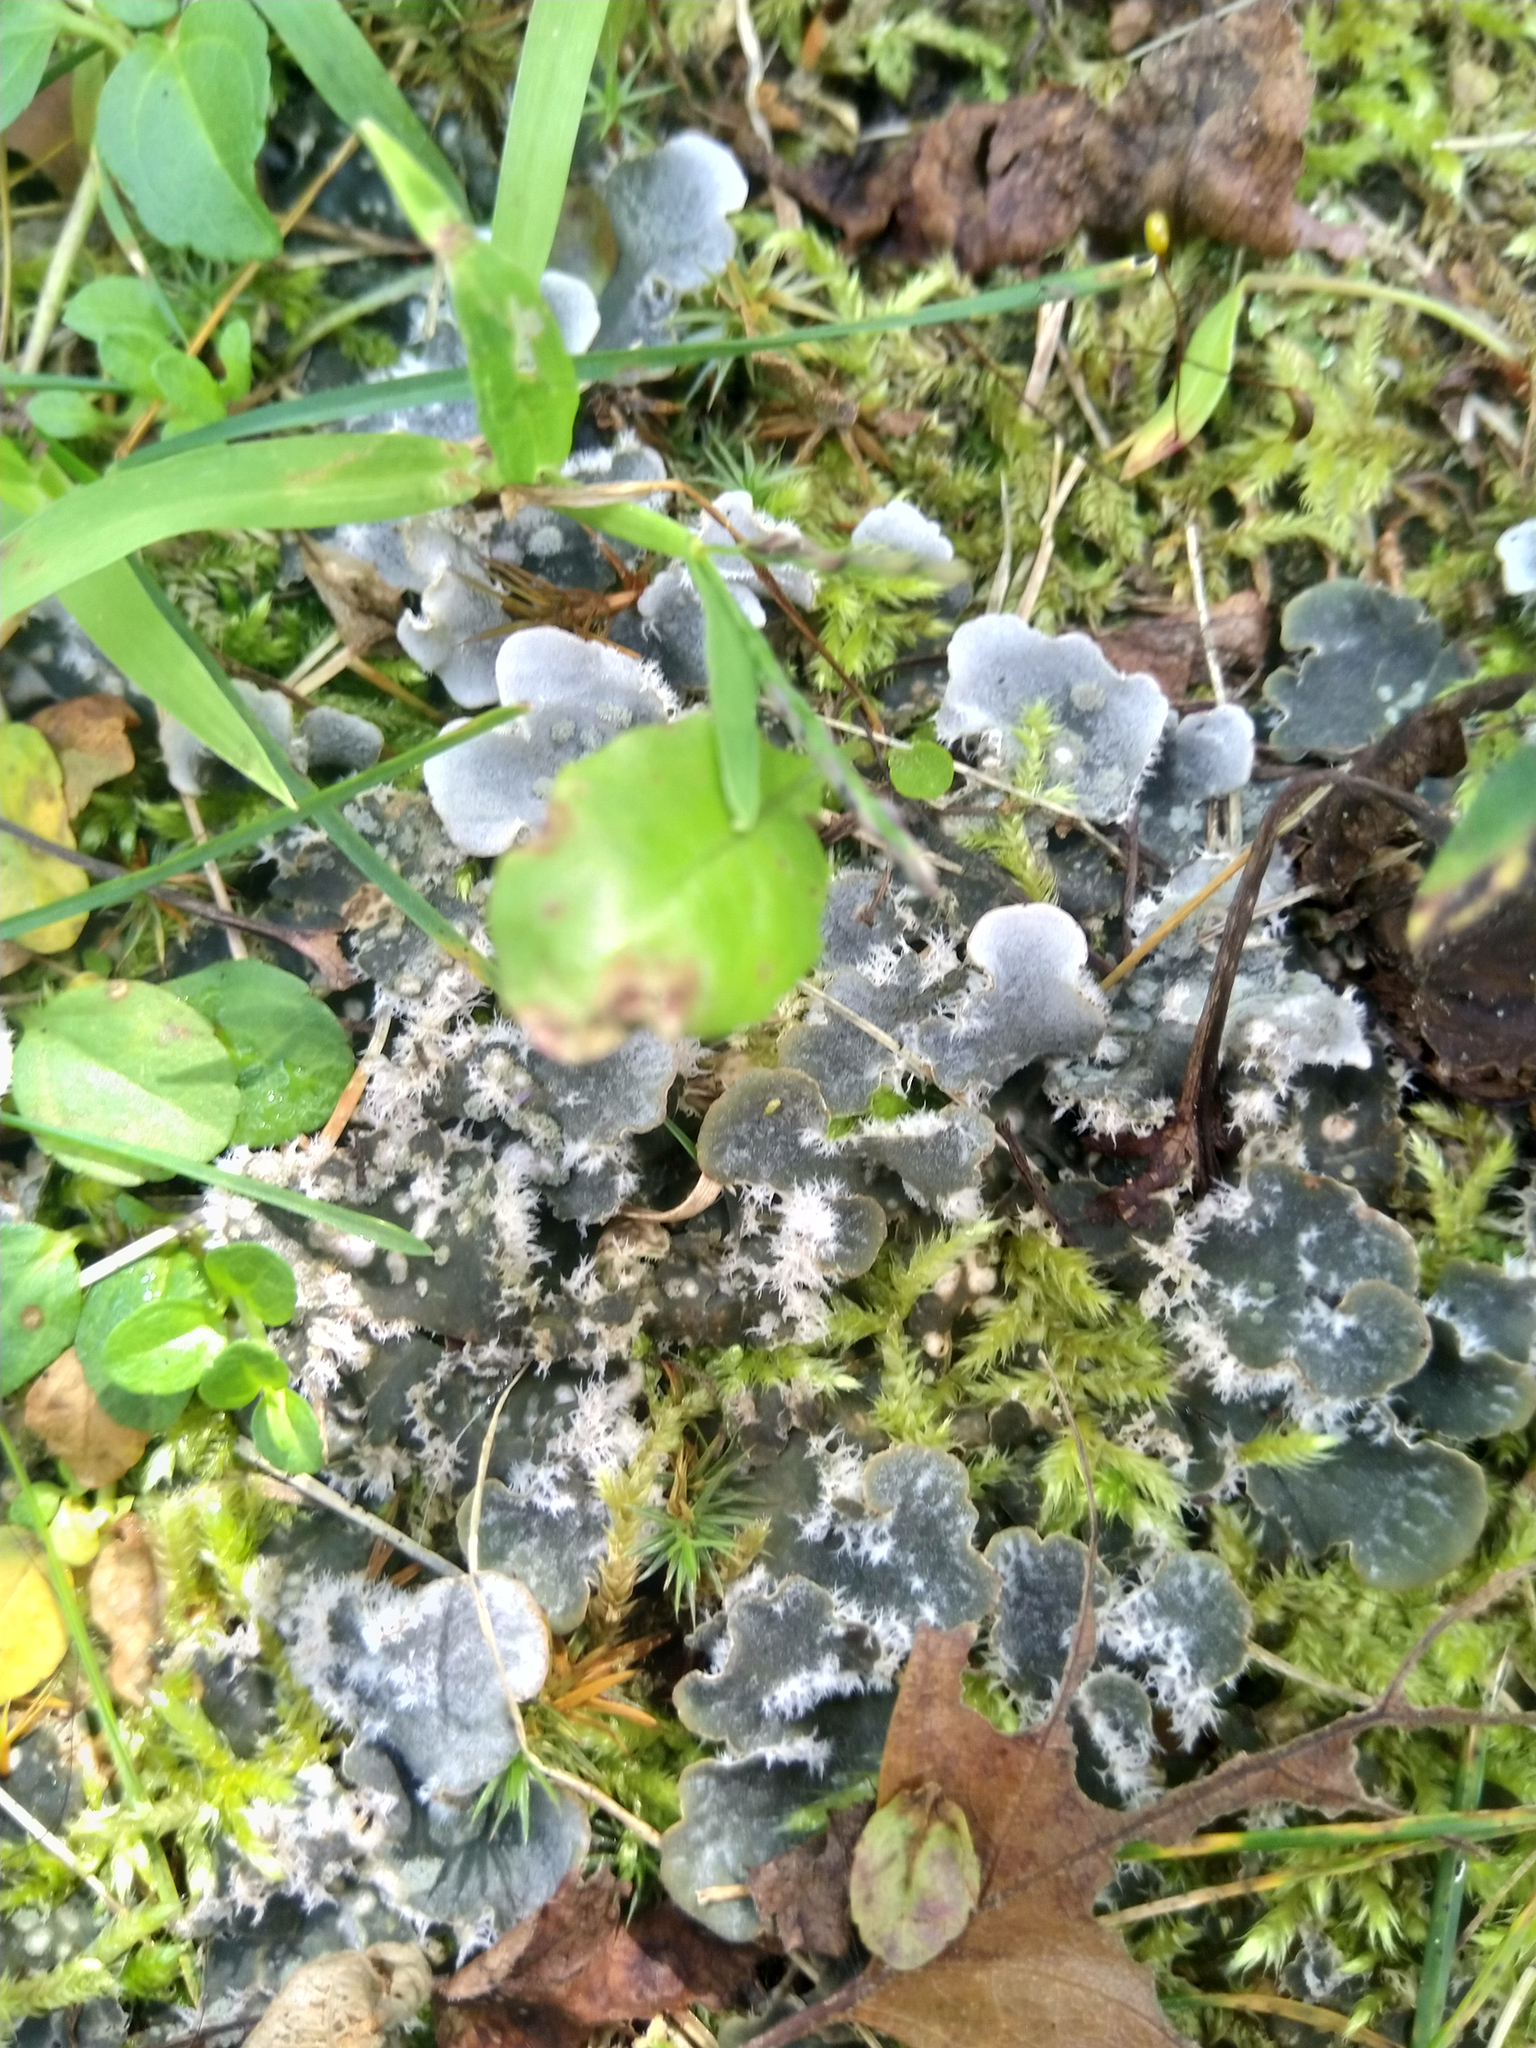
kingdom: Fungi
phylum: Ascomycota
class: Lecanoromycetes
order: Peltigerales
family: Peltigeraceae
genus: Peltigera
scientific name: Peltigera extenuata
